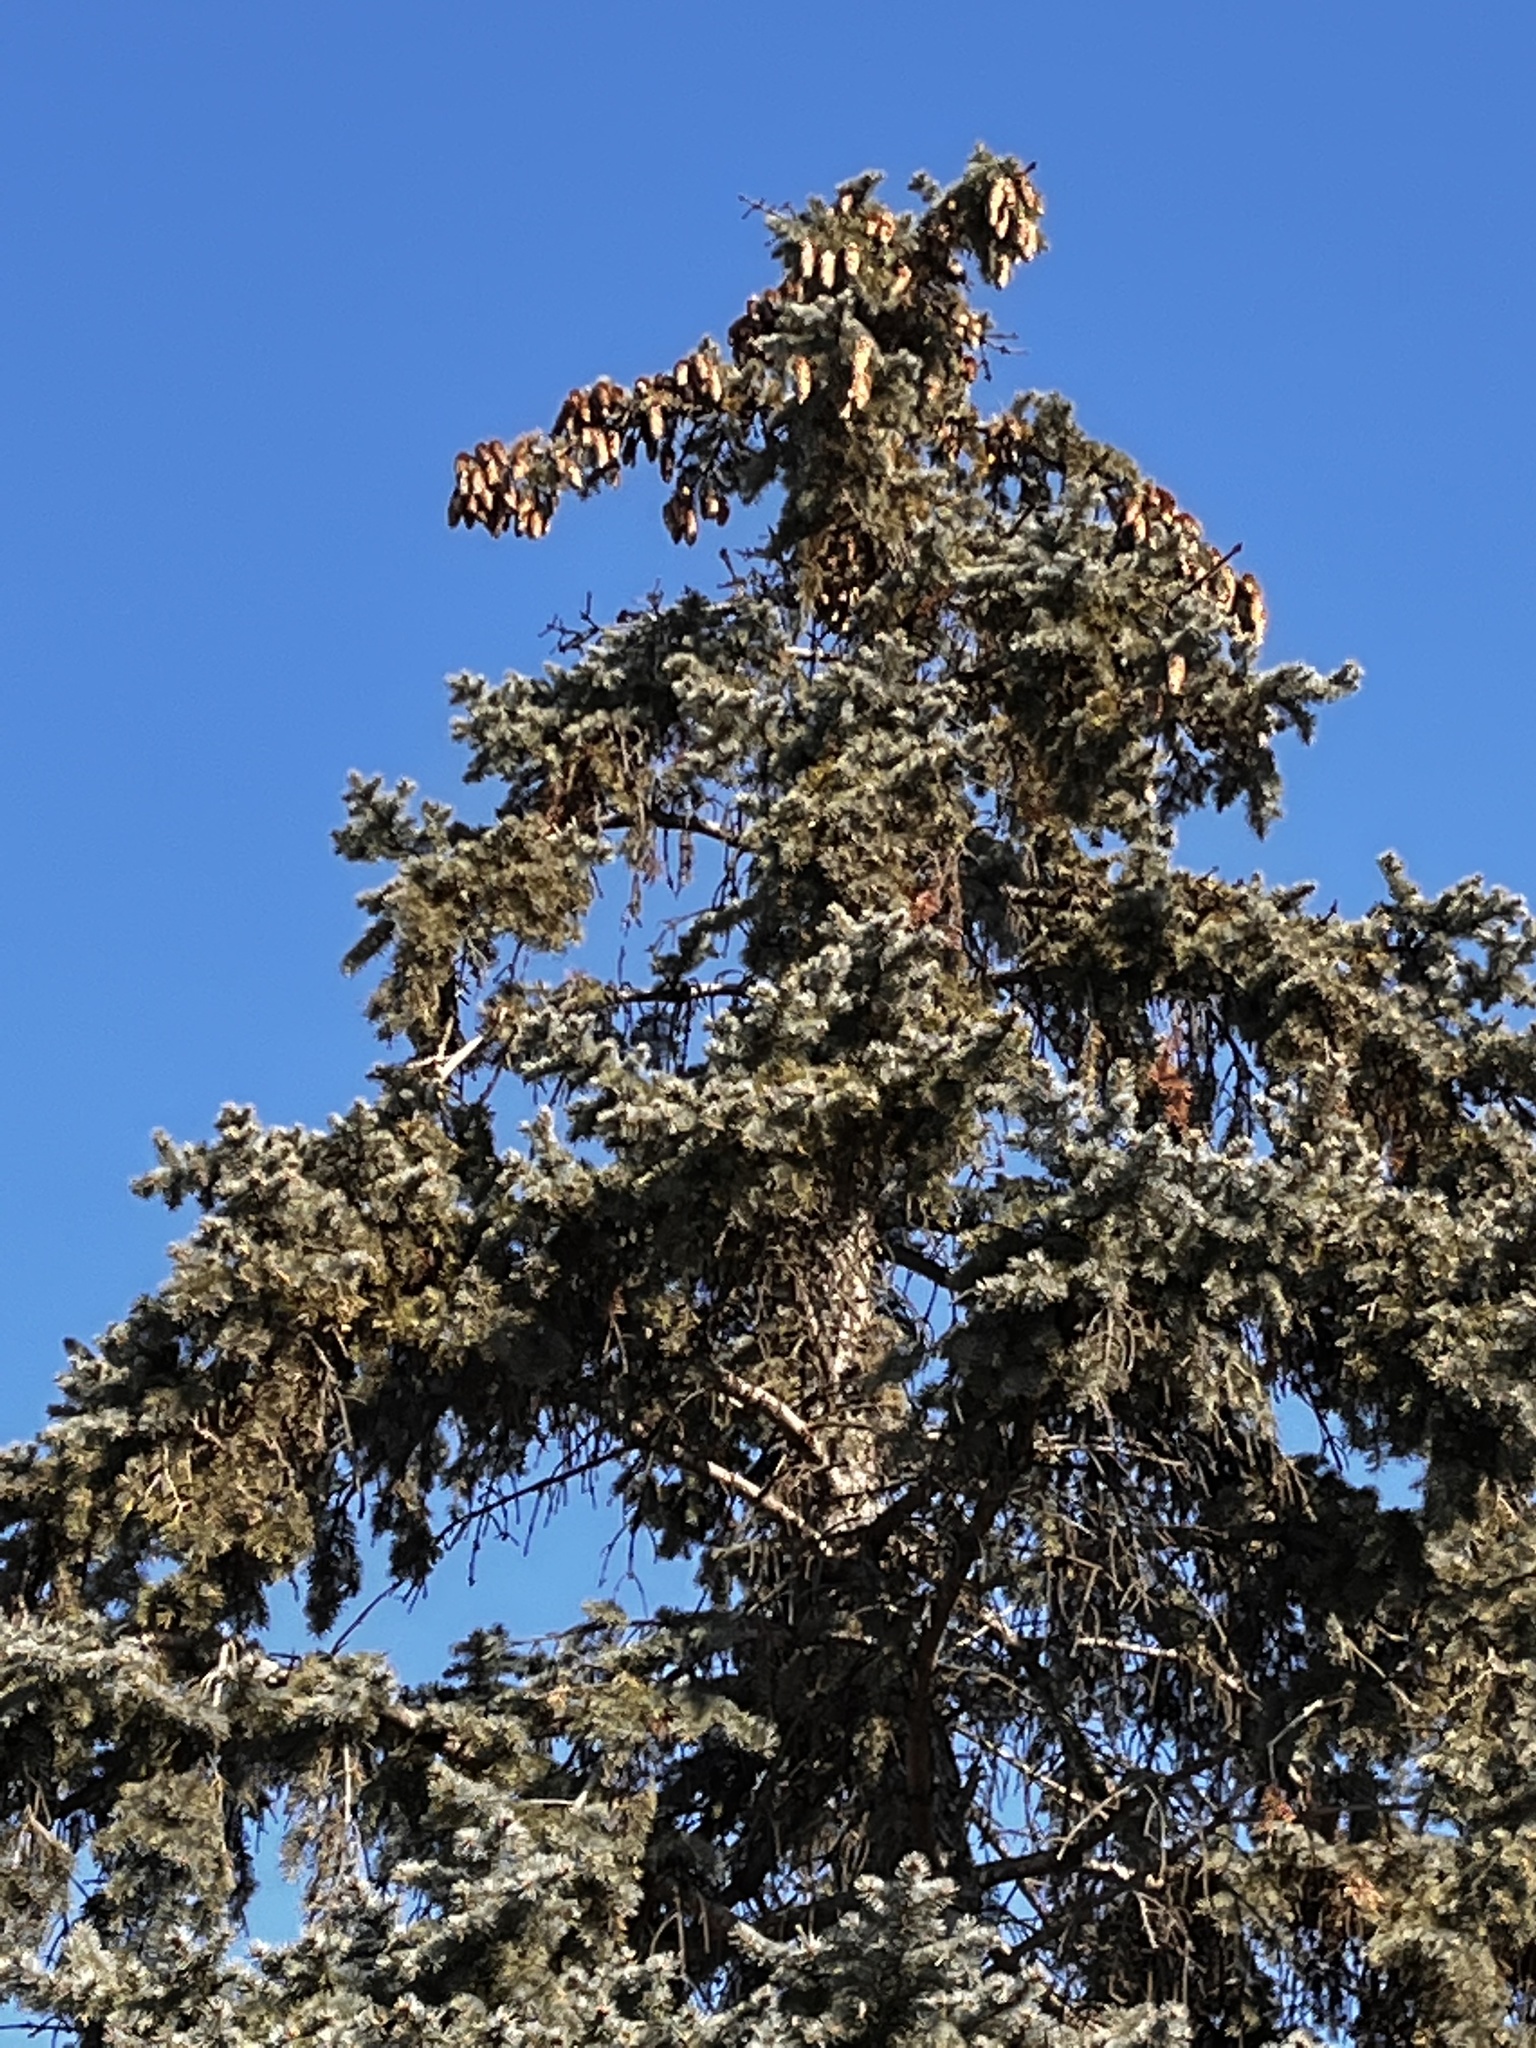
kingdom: Plantae
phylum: Tracheophyta
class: Pinopsida
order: Pinales
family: Pinaceae
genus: Picea
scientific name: Picea pungens
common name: Colorado spruce
